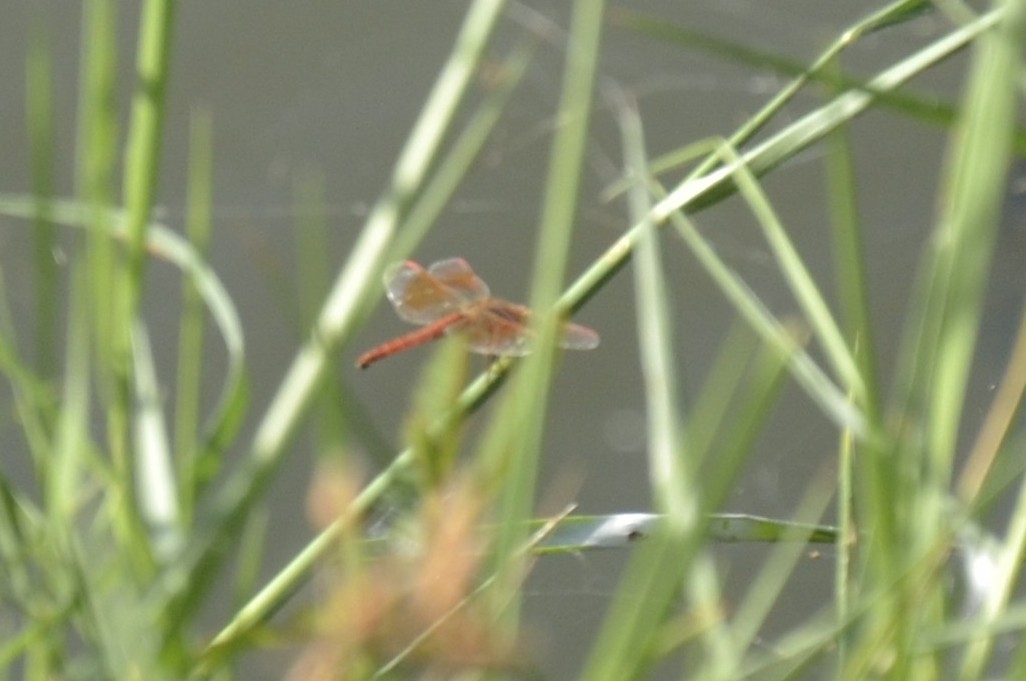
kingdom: Animalia
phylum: Arthropoda
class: Insecta
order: Odonata
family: Libellulidae
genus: Brachythemis
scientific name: Brachythemis contaminata
